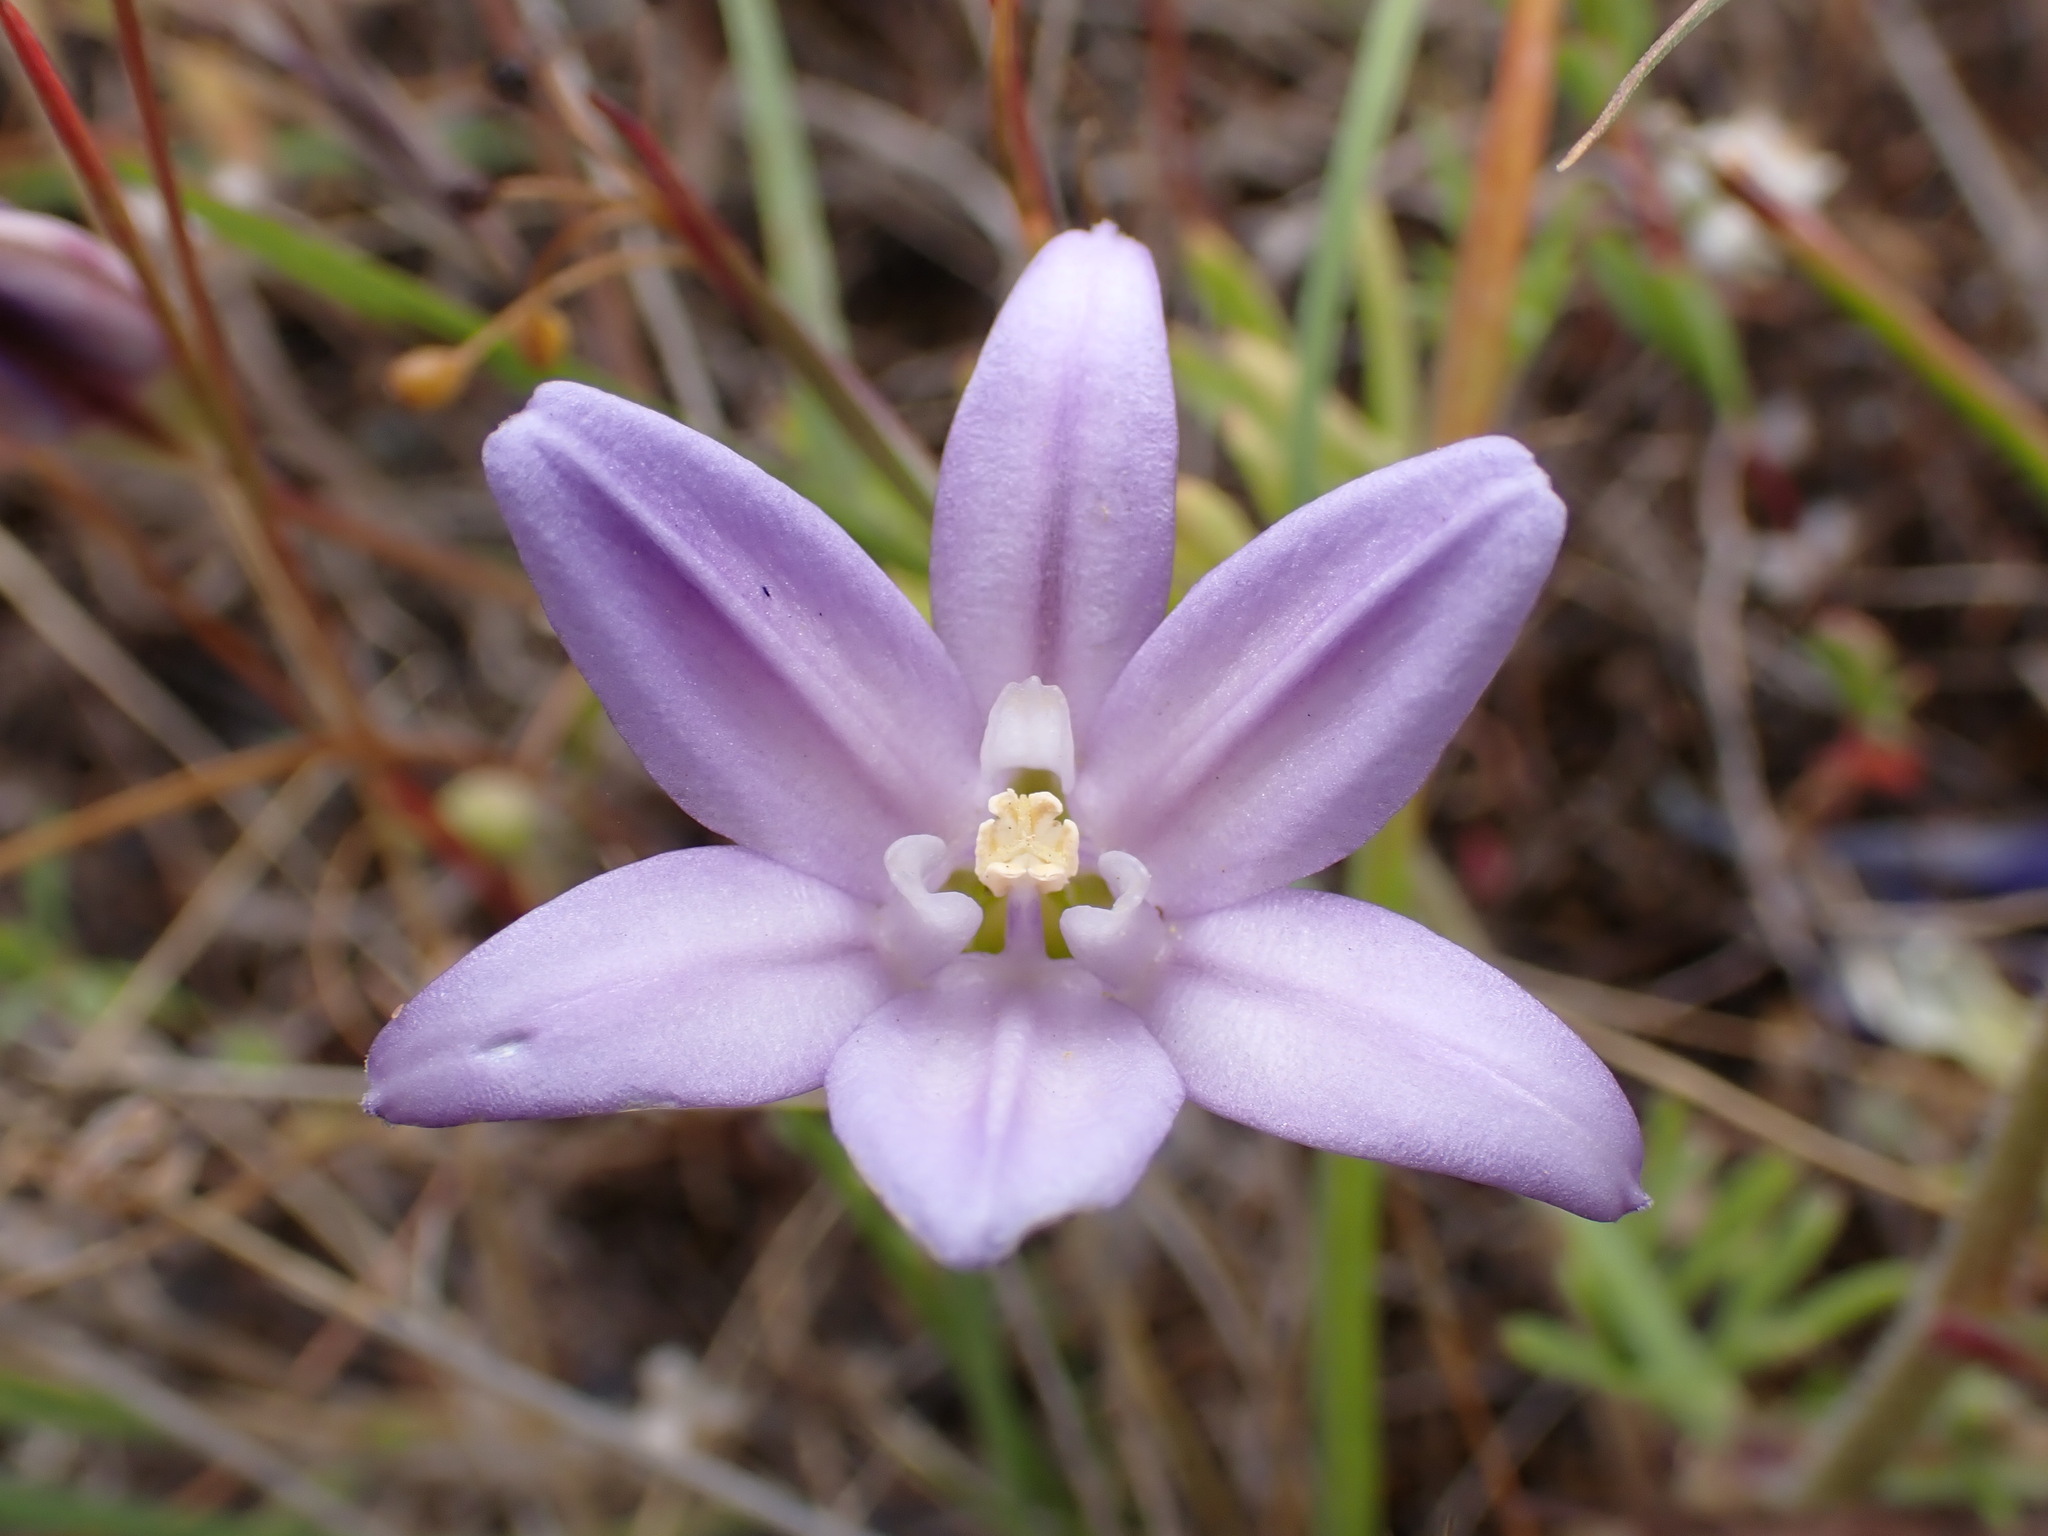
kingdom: Plantae
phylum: Tracheophyta
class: Liliopsida
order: Asparagales
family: Asparagaceae
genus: Brodiaea
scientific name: Brodiaea terrestris
